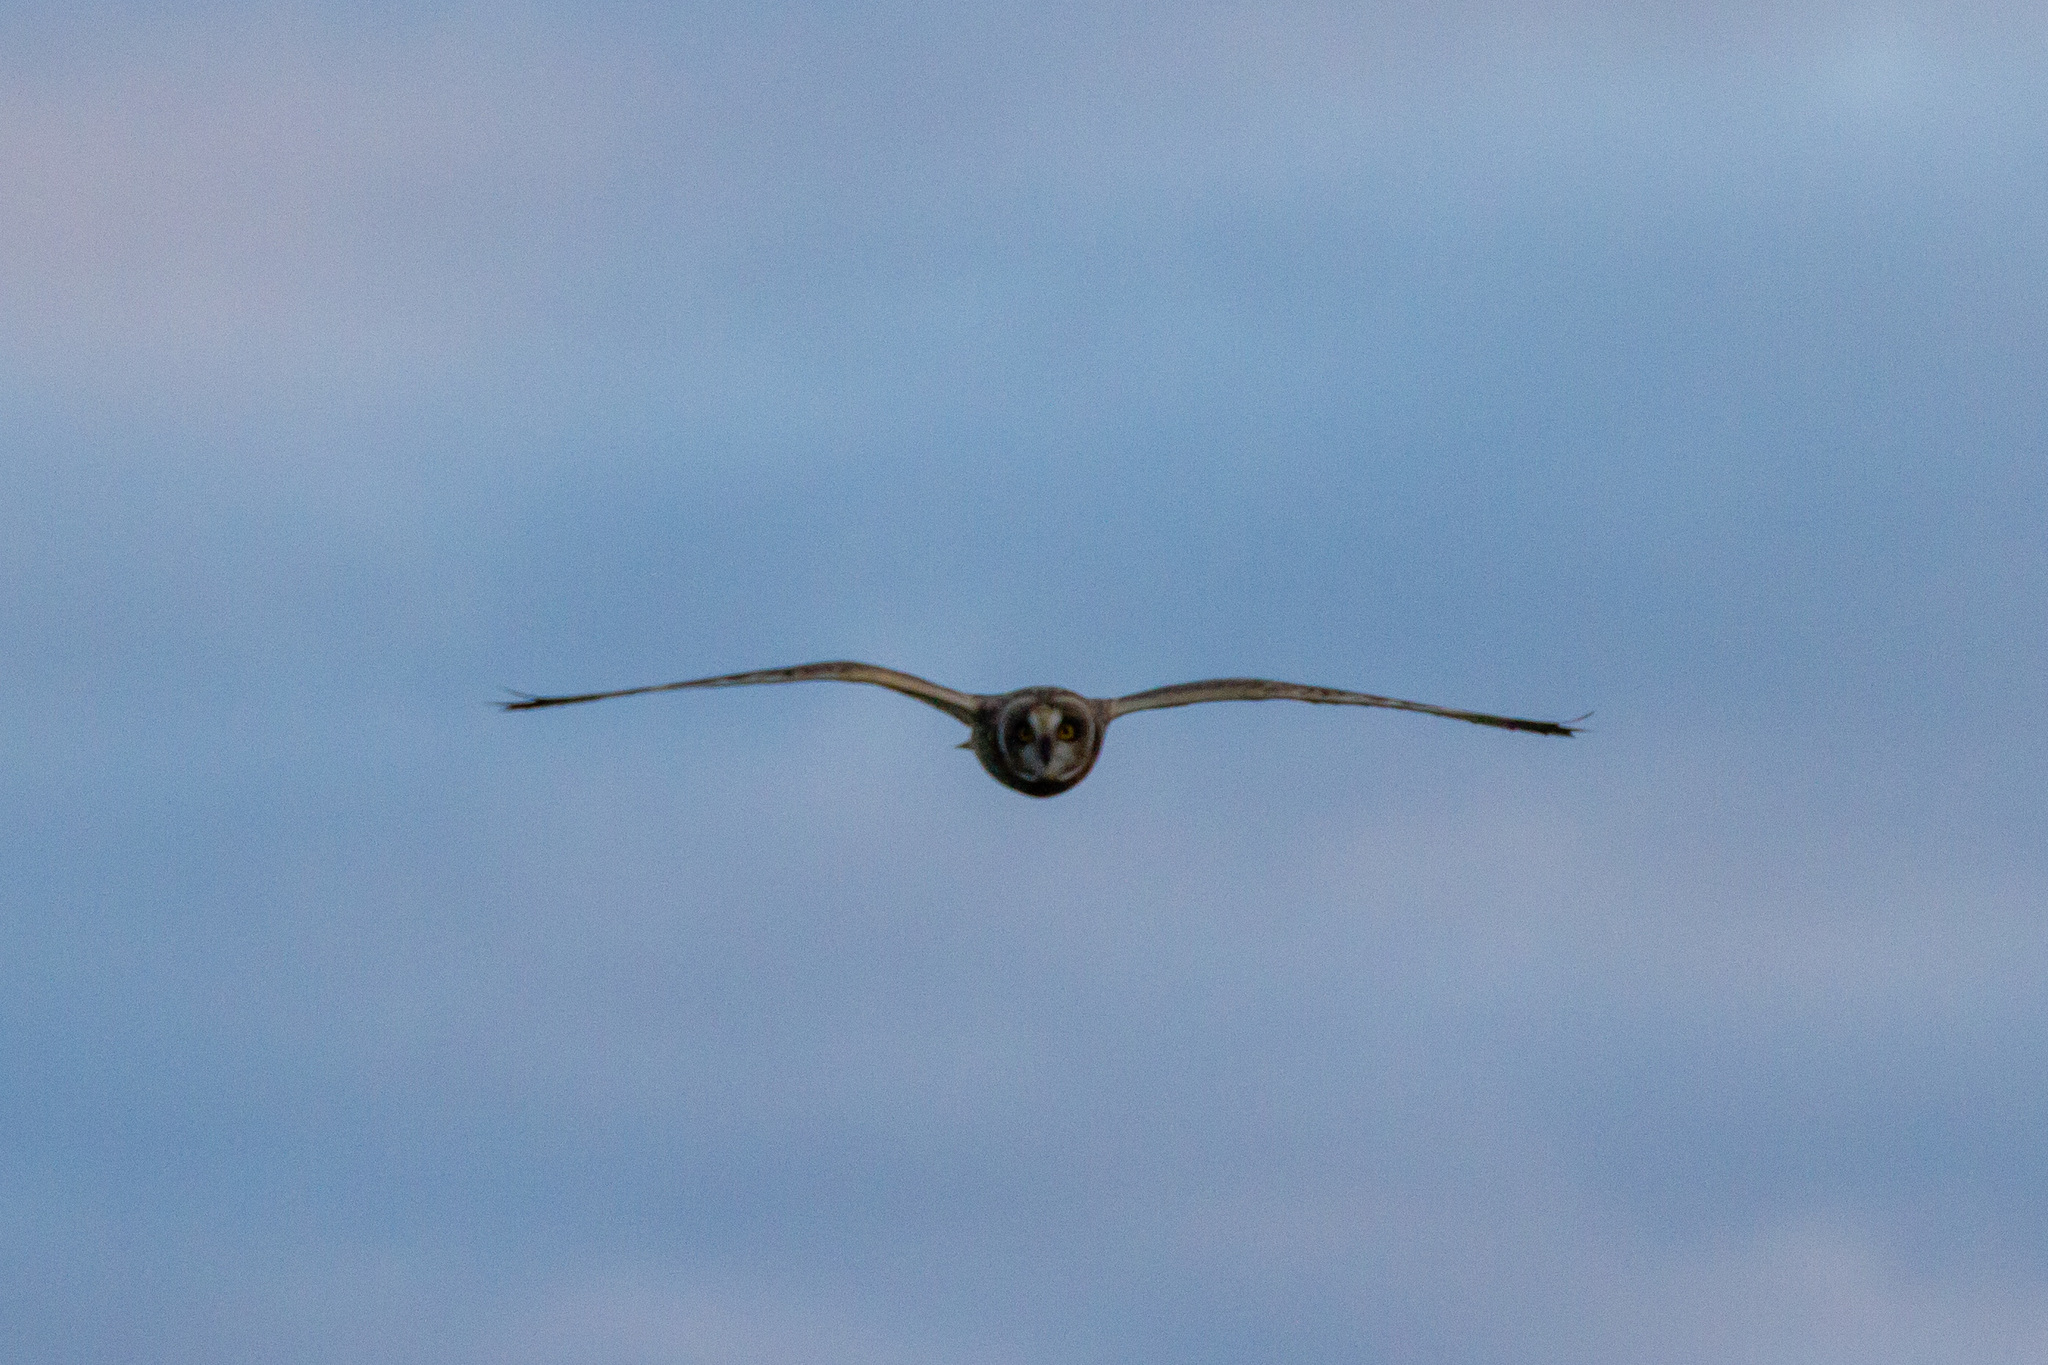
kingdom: Animalia
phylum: Chordata
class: Aves
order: Strigiformes
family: Strigidae
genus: Asio
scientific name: Asio flammeus
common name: Short-eared owl
